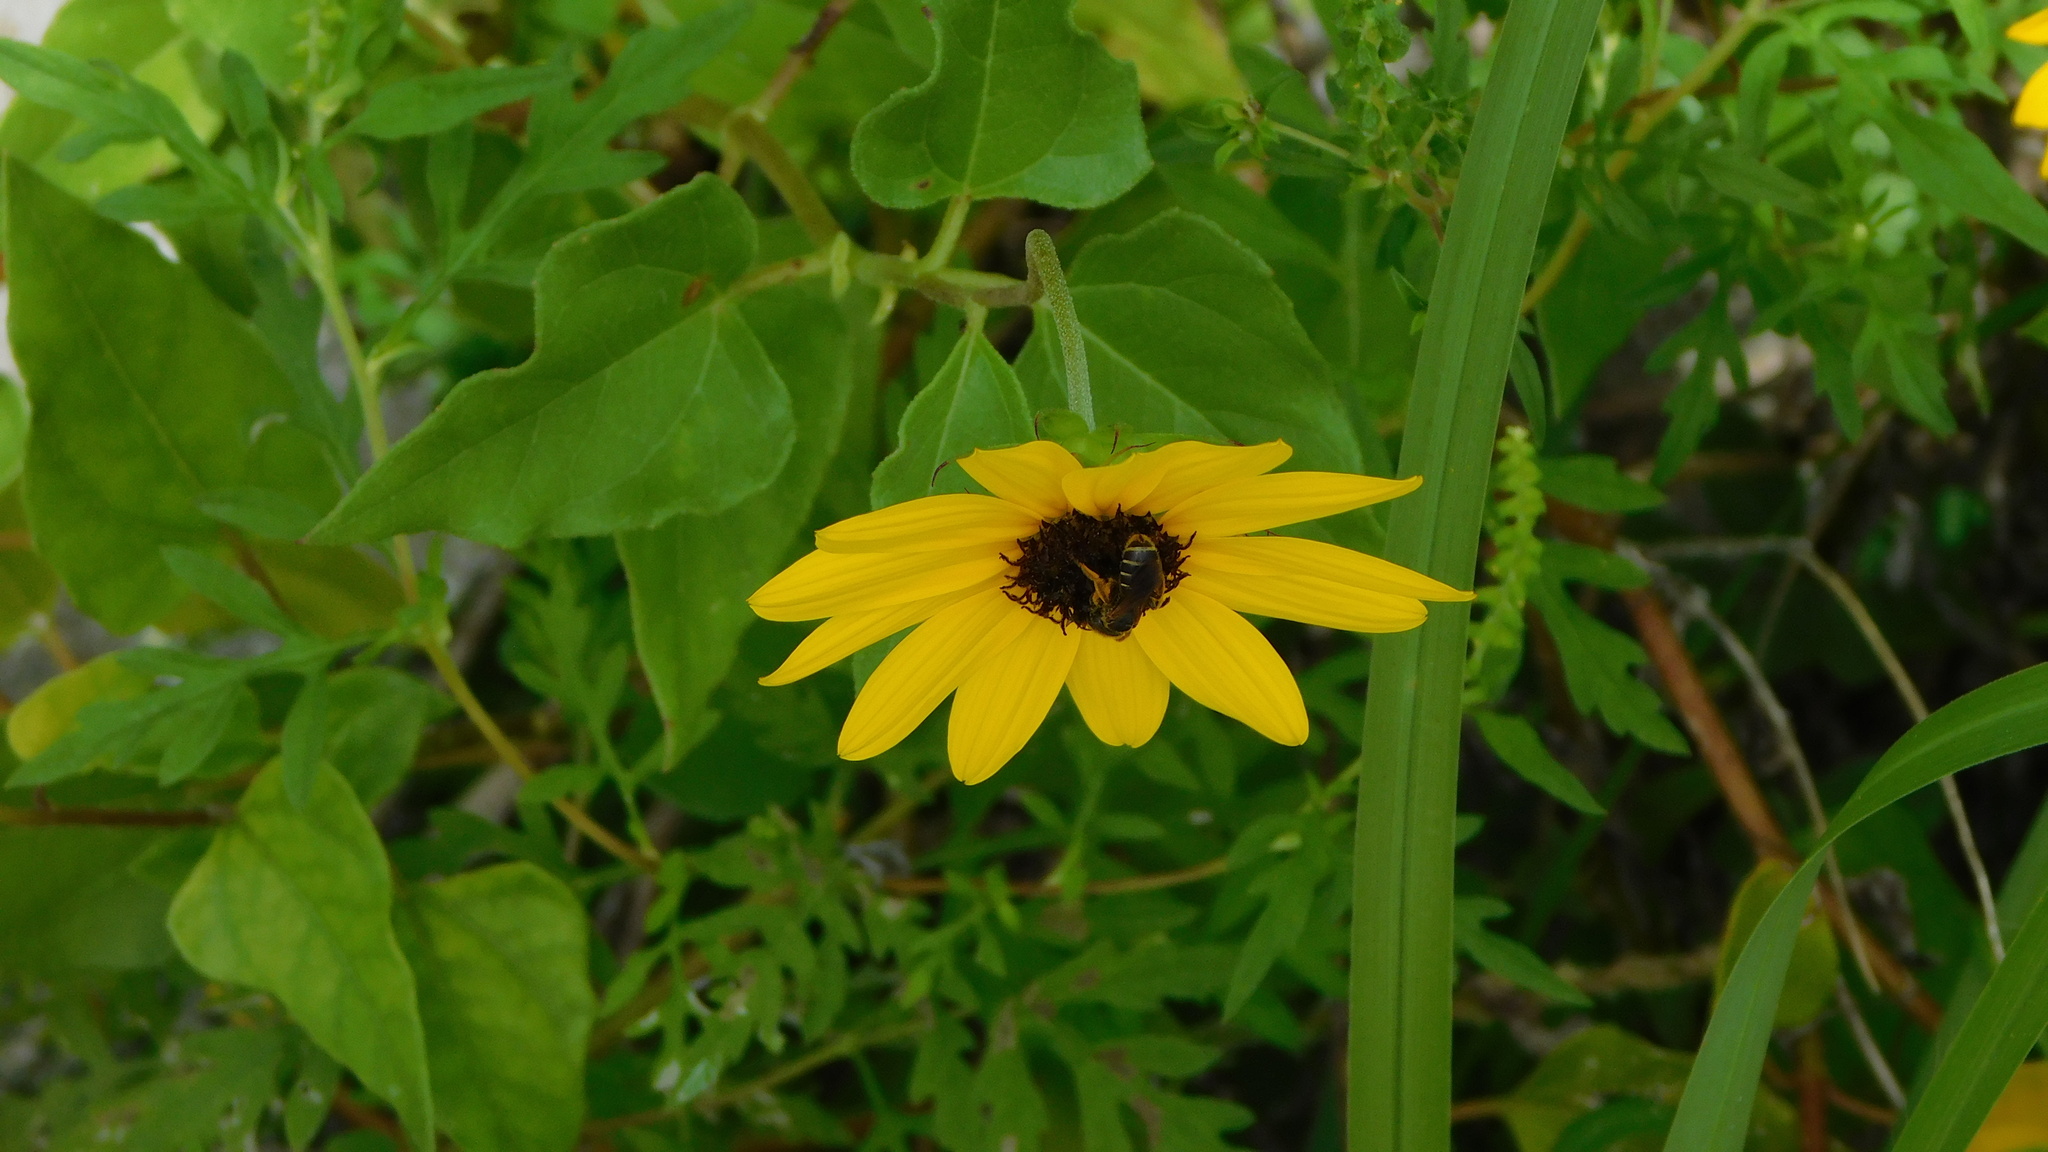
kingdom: Plantae
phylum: Tracheophyta
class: Magnoliopsida
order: Asterales
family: Asteraceae
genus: Helianthus
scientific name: Helianthus debilis
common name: Weak sunflower
